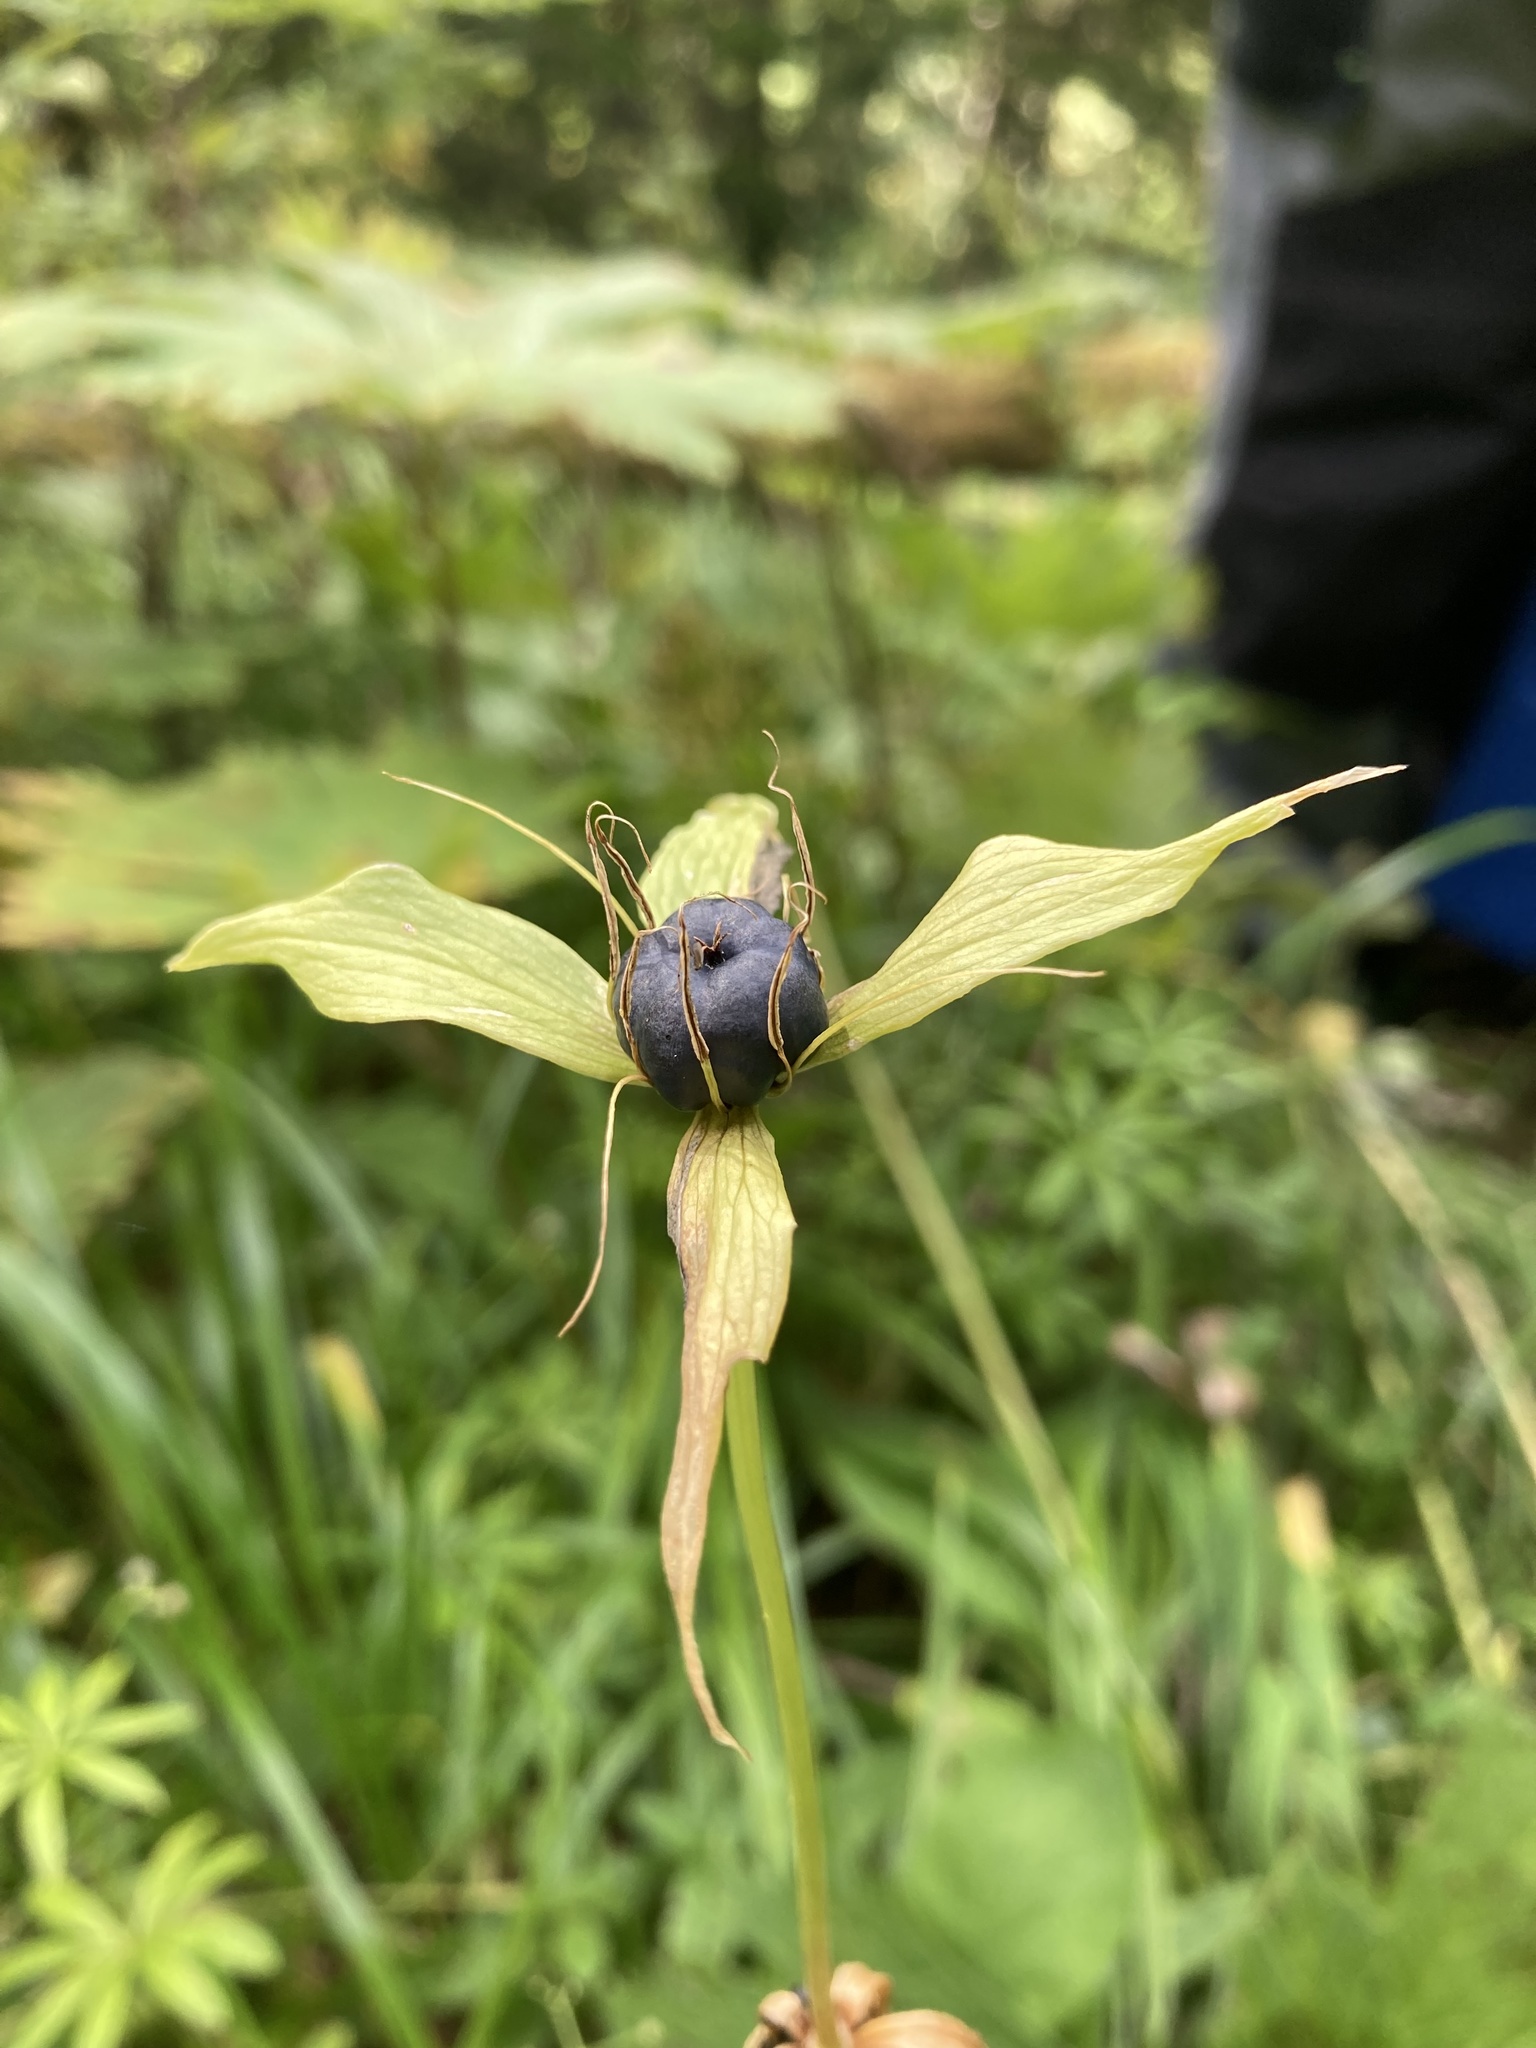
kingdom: Plantae
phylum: Tracheophyta
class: Liliopsida
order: Liliales
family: Melanthiaceae
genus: Paris
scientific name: Paris quadrifolia
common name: Herb-paris
